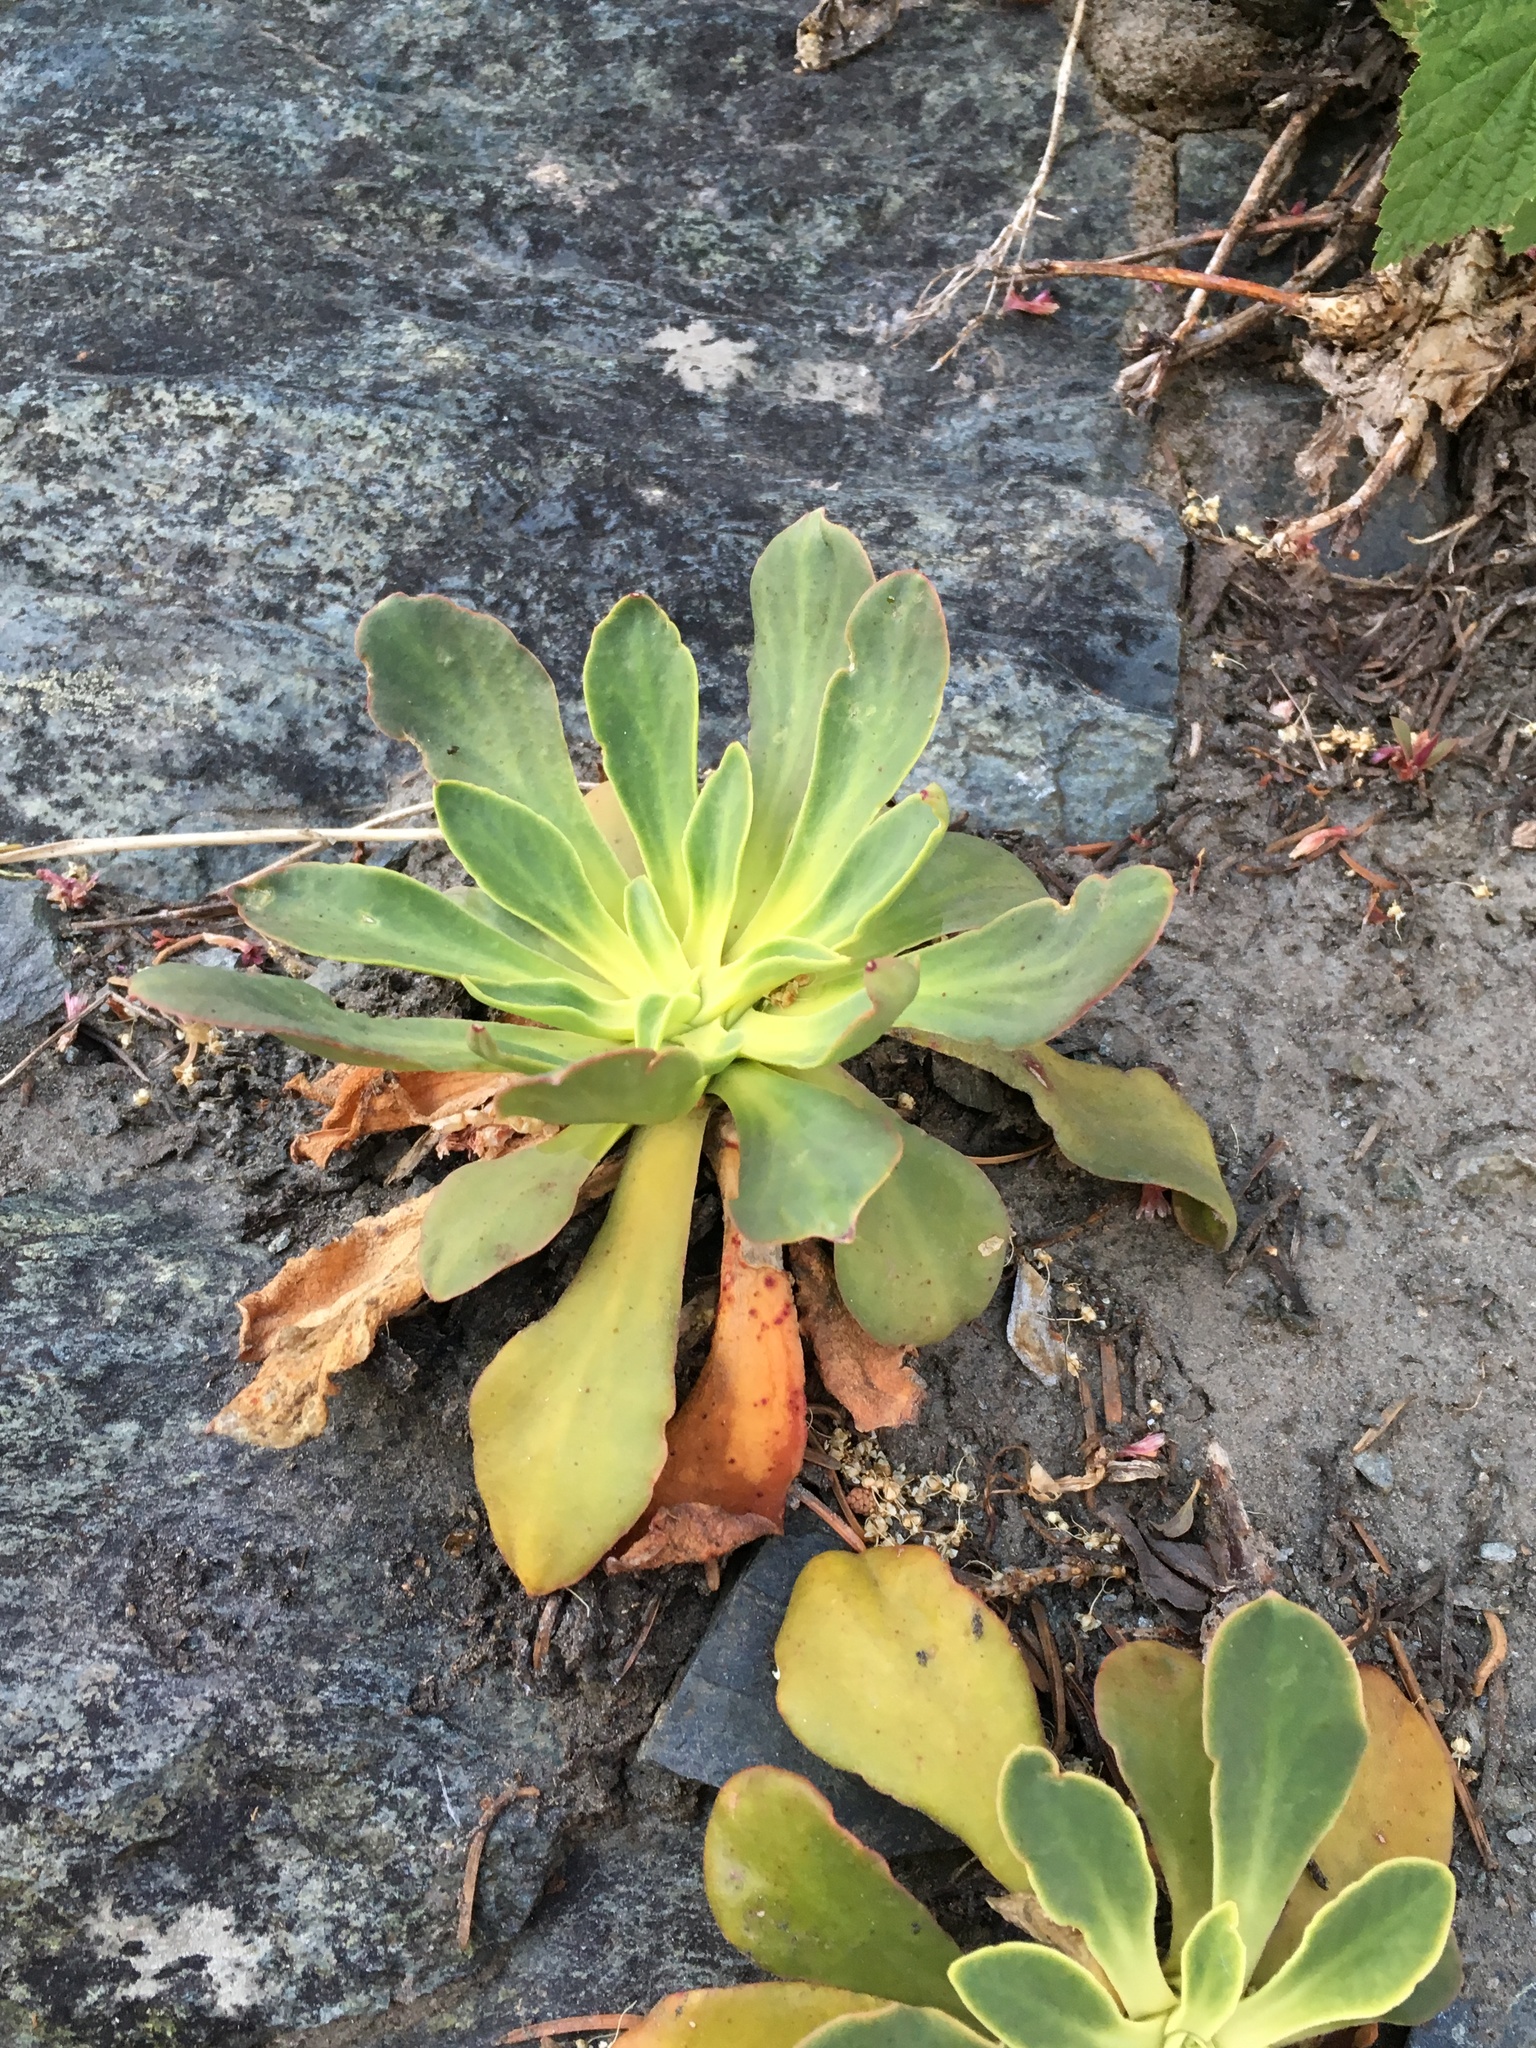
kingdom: Plantae
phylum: Tracheophyta
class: Magnoliopsida
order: Caryophyllales
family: Montiaceae
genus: Lewisia
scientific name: Lewisia cotyledon
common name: Siskiyou lewisia
